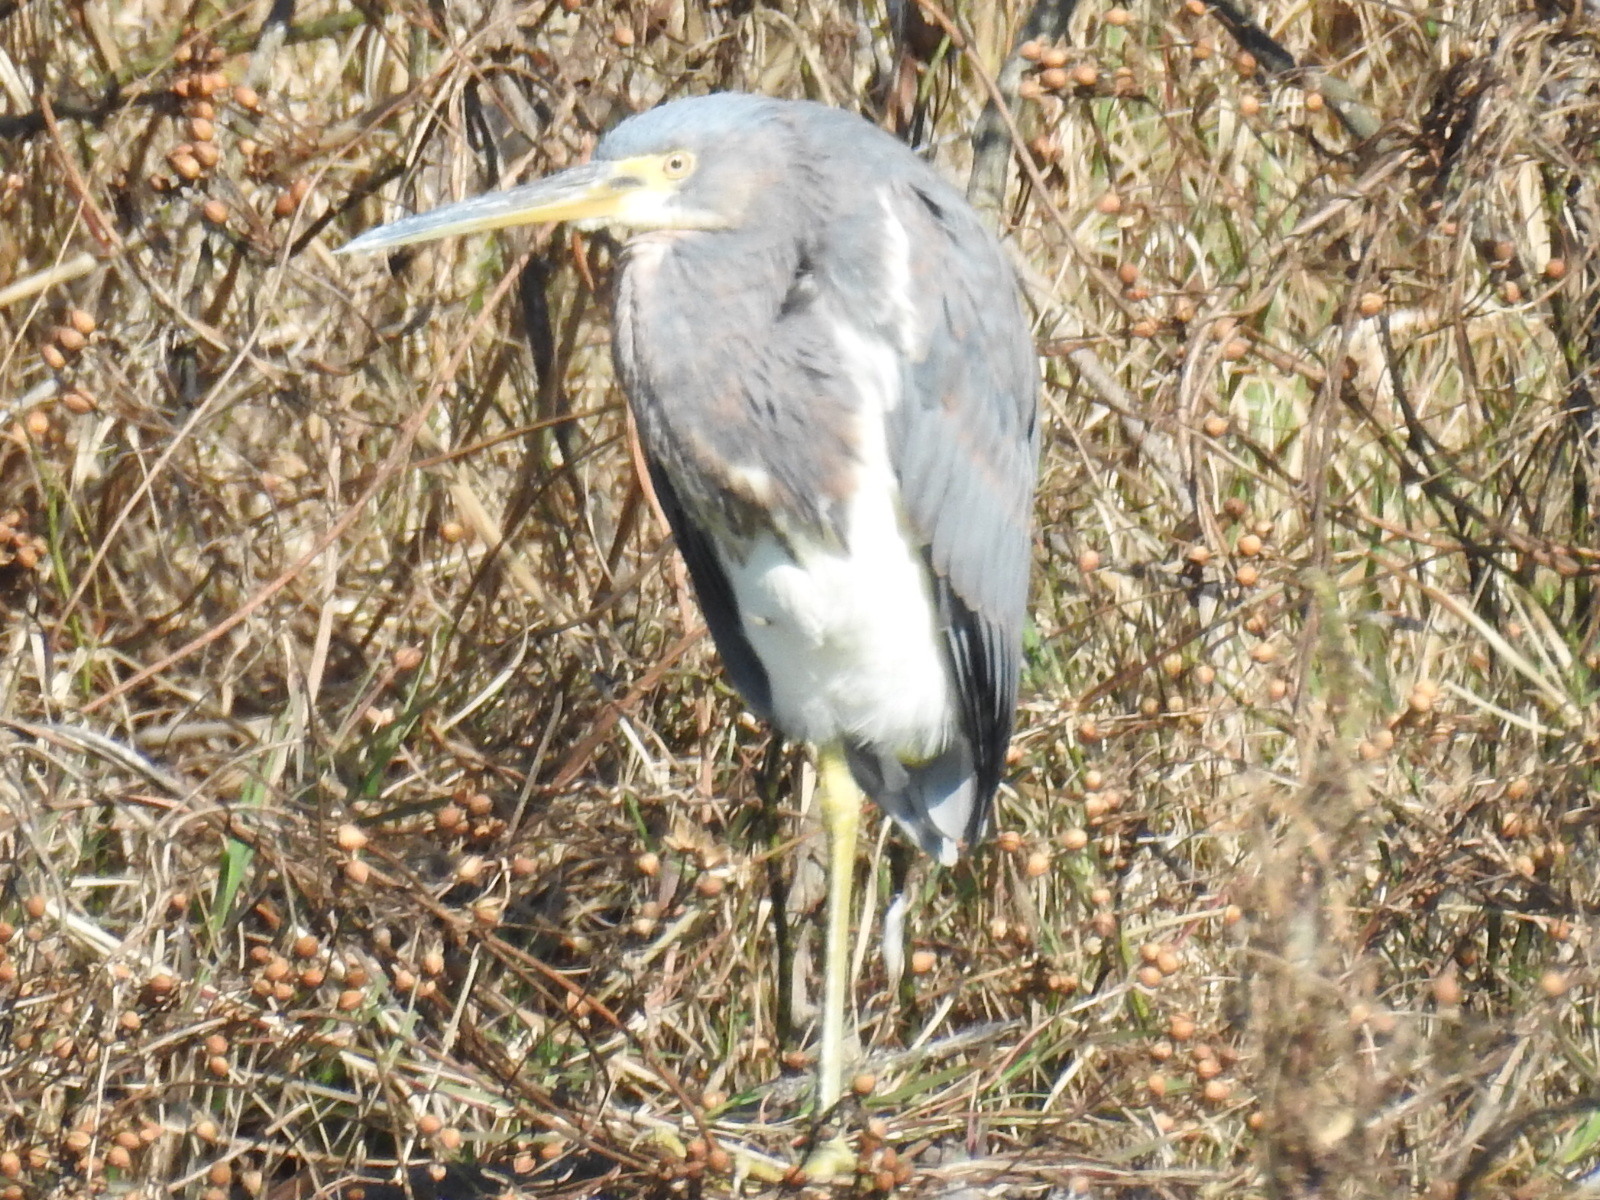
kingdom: Animalia
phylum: Chordata
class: Aves
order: Pelecaniformes
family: Ardeidae
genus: Egretta
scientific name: Egretta tricolor
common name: Tricolored heron
